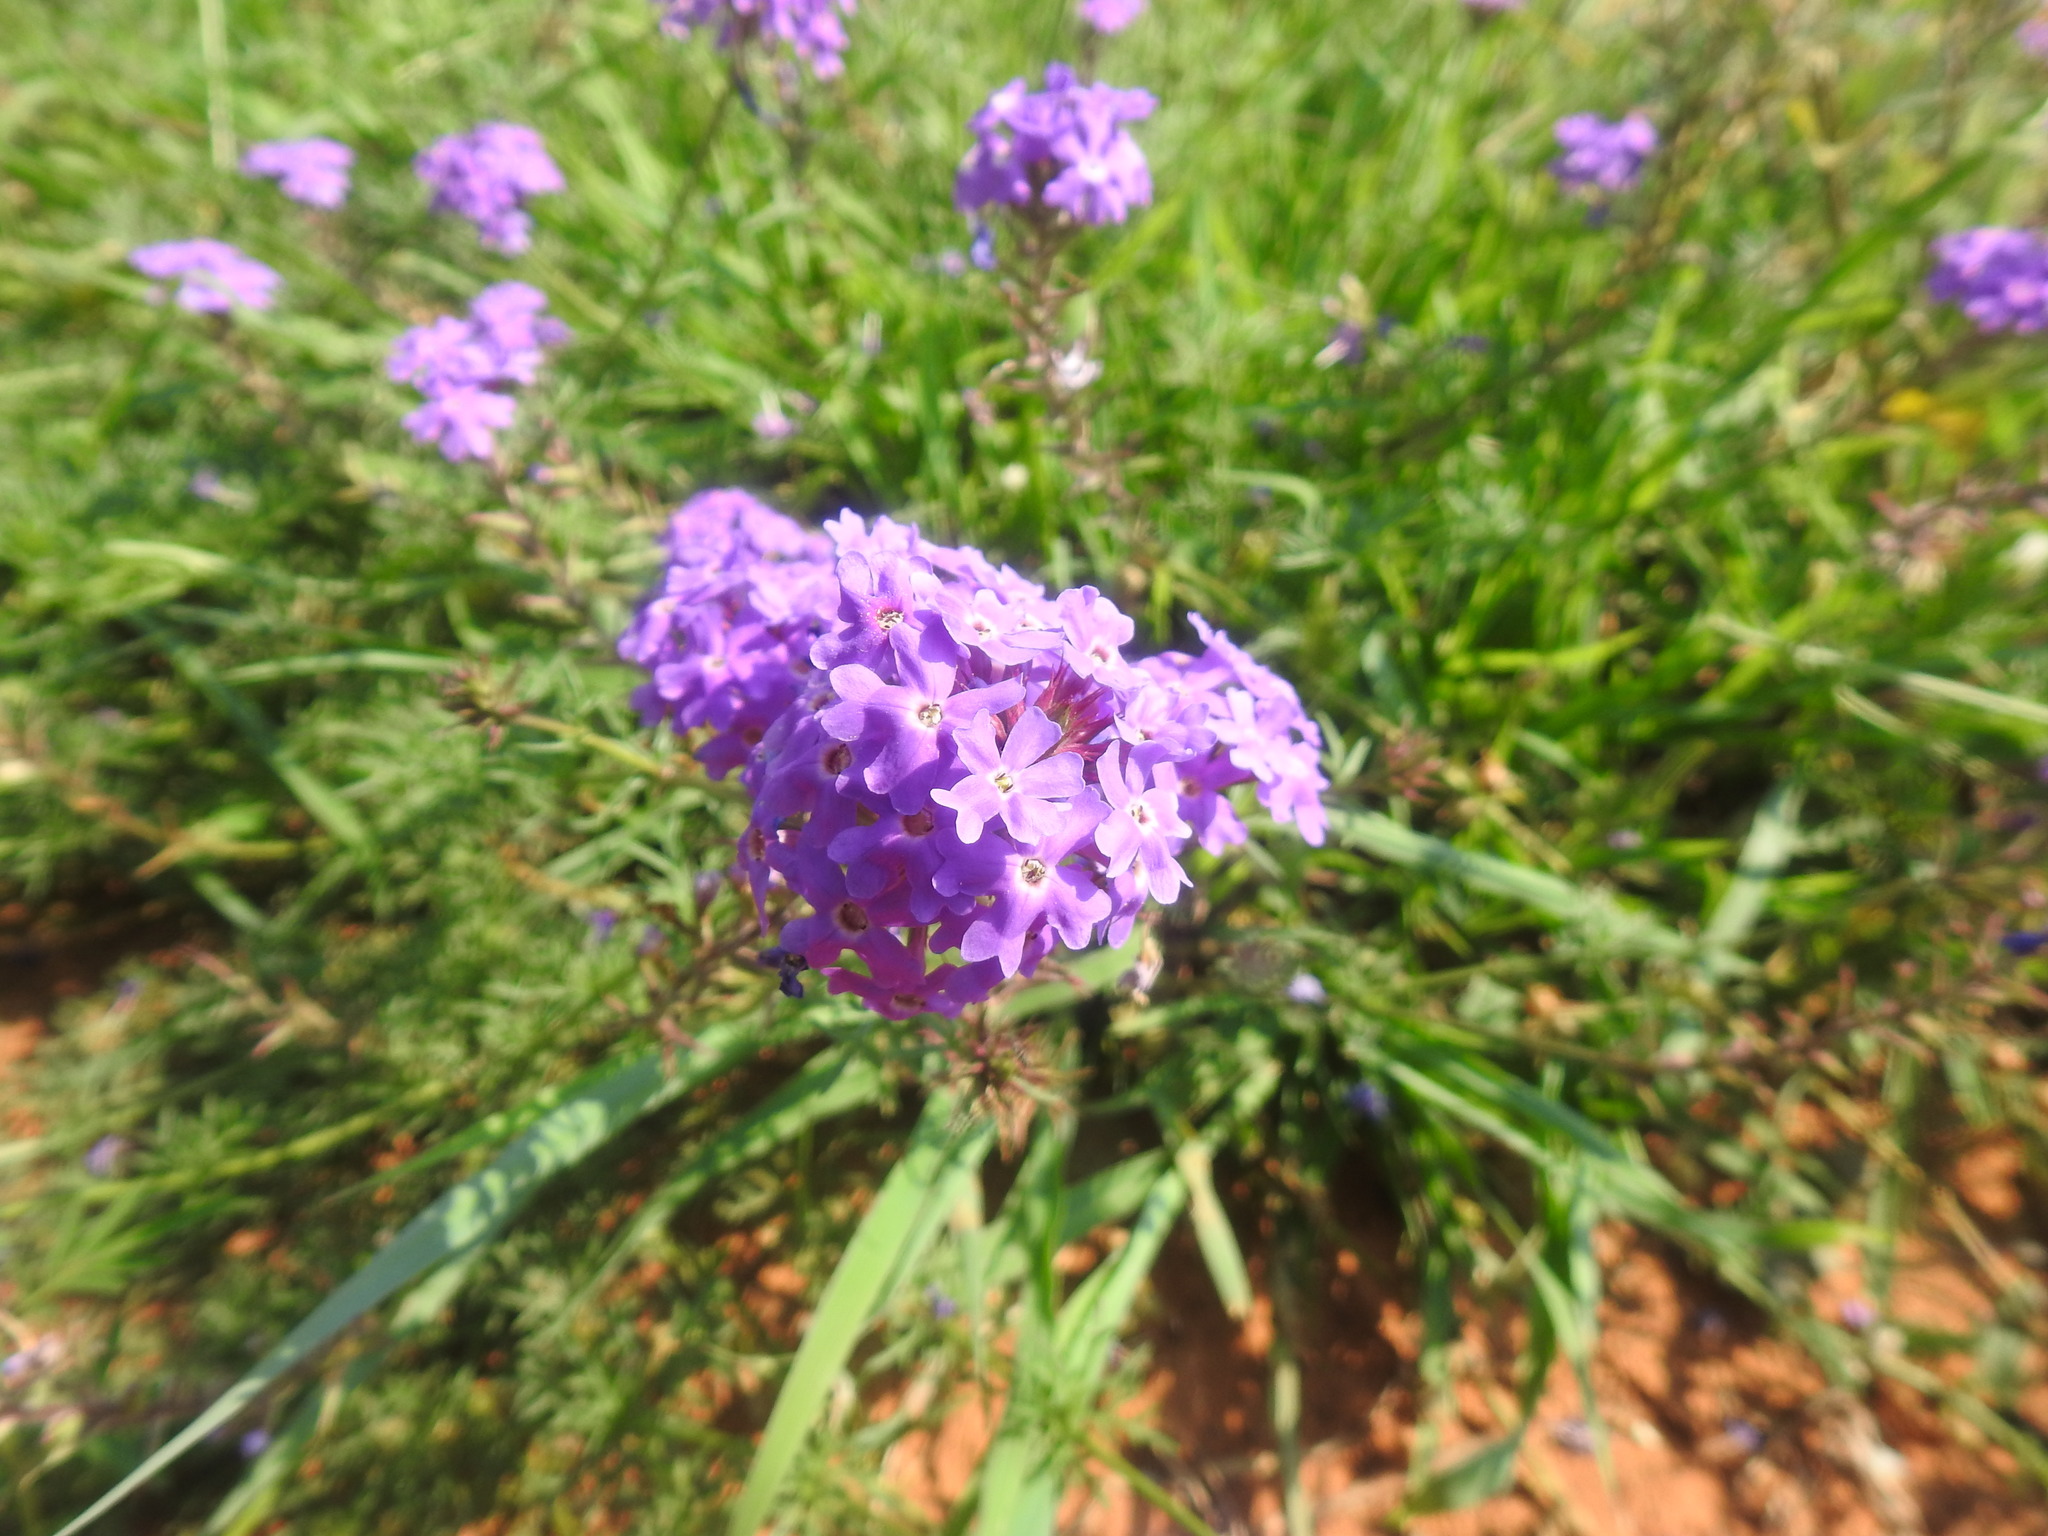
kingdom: Plantae
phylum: Tracheophyta
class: Magnoliopsida
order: Lamiales
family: Verbenaceae
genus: Verbena
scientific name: Verbena aristigera
